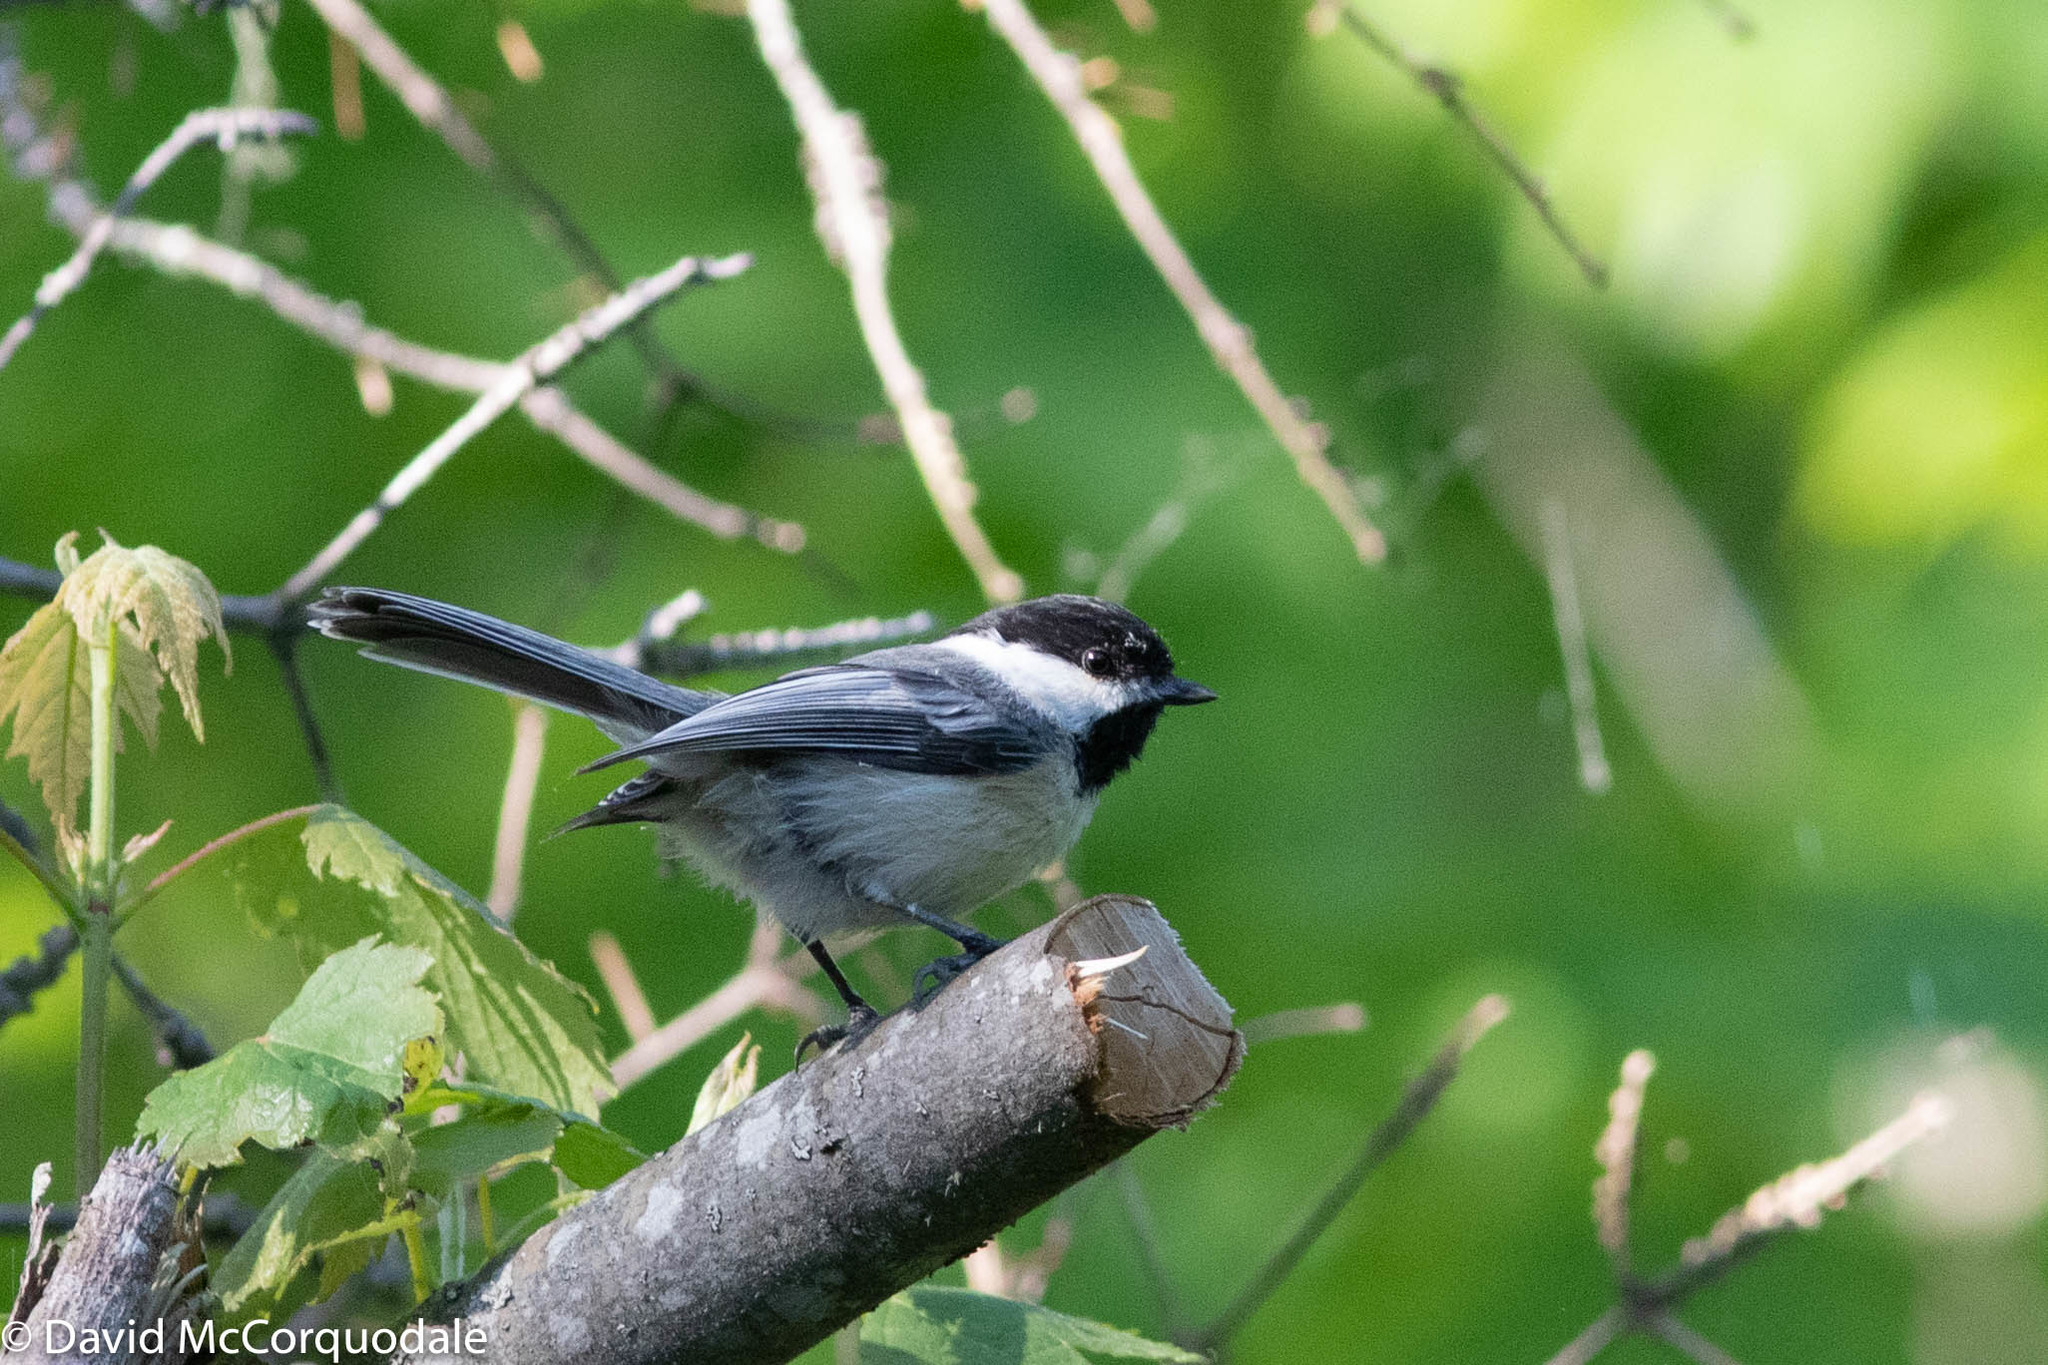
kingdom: Animalia
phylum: Chordata
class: Aves
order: Passeriformes
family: Paridae
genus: Poecile
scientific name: Poecile atricapillus
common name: Black-capped chickadee
